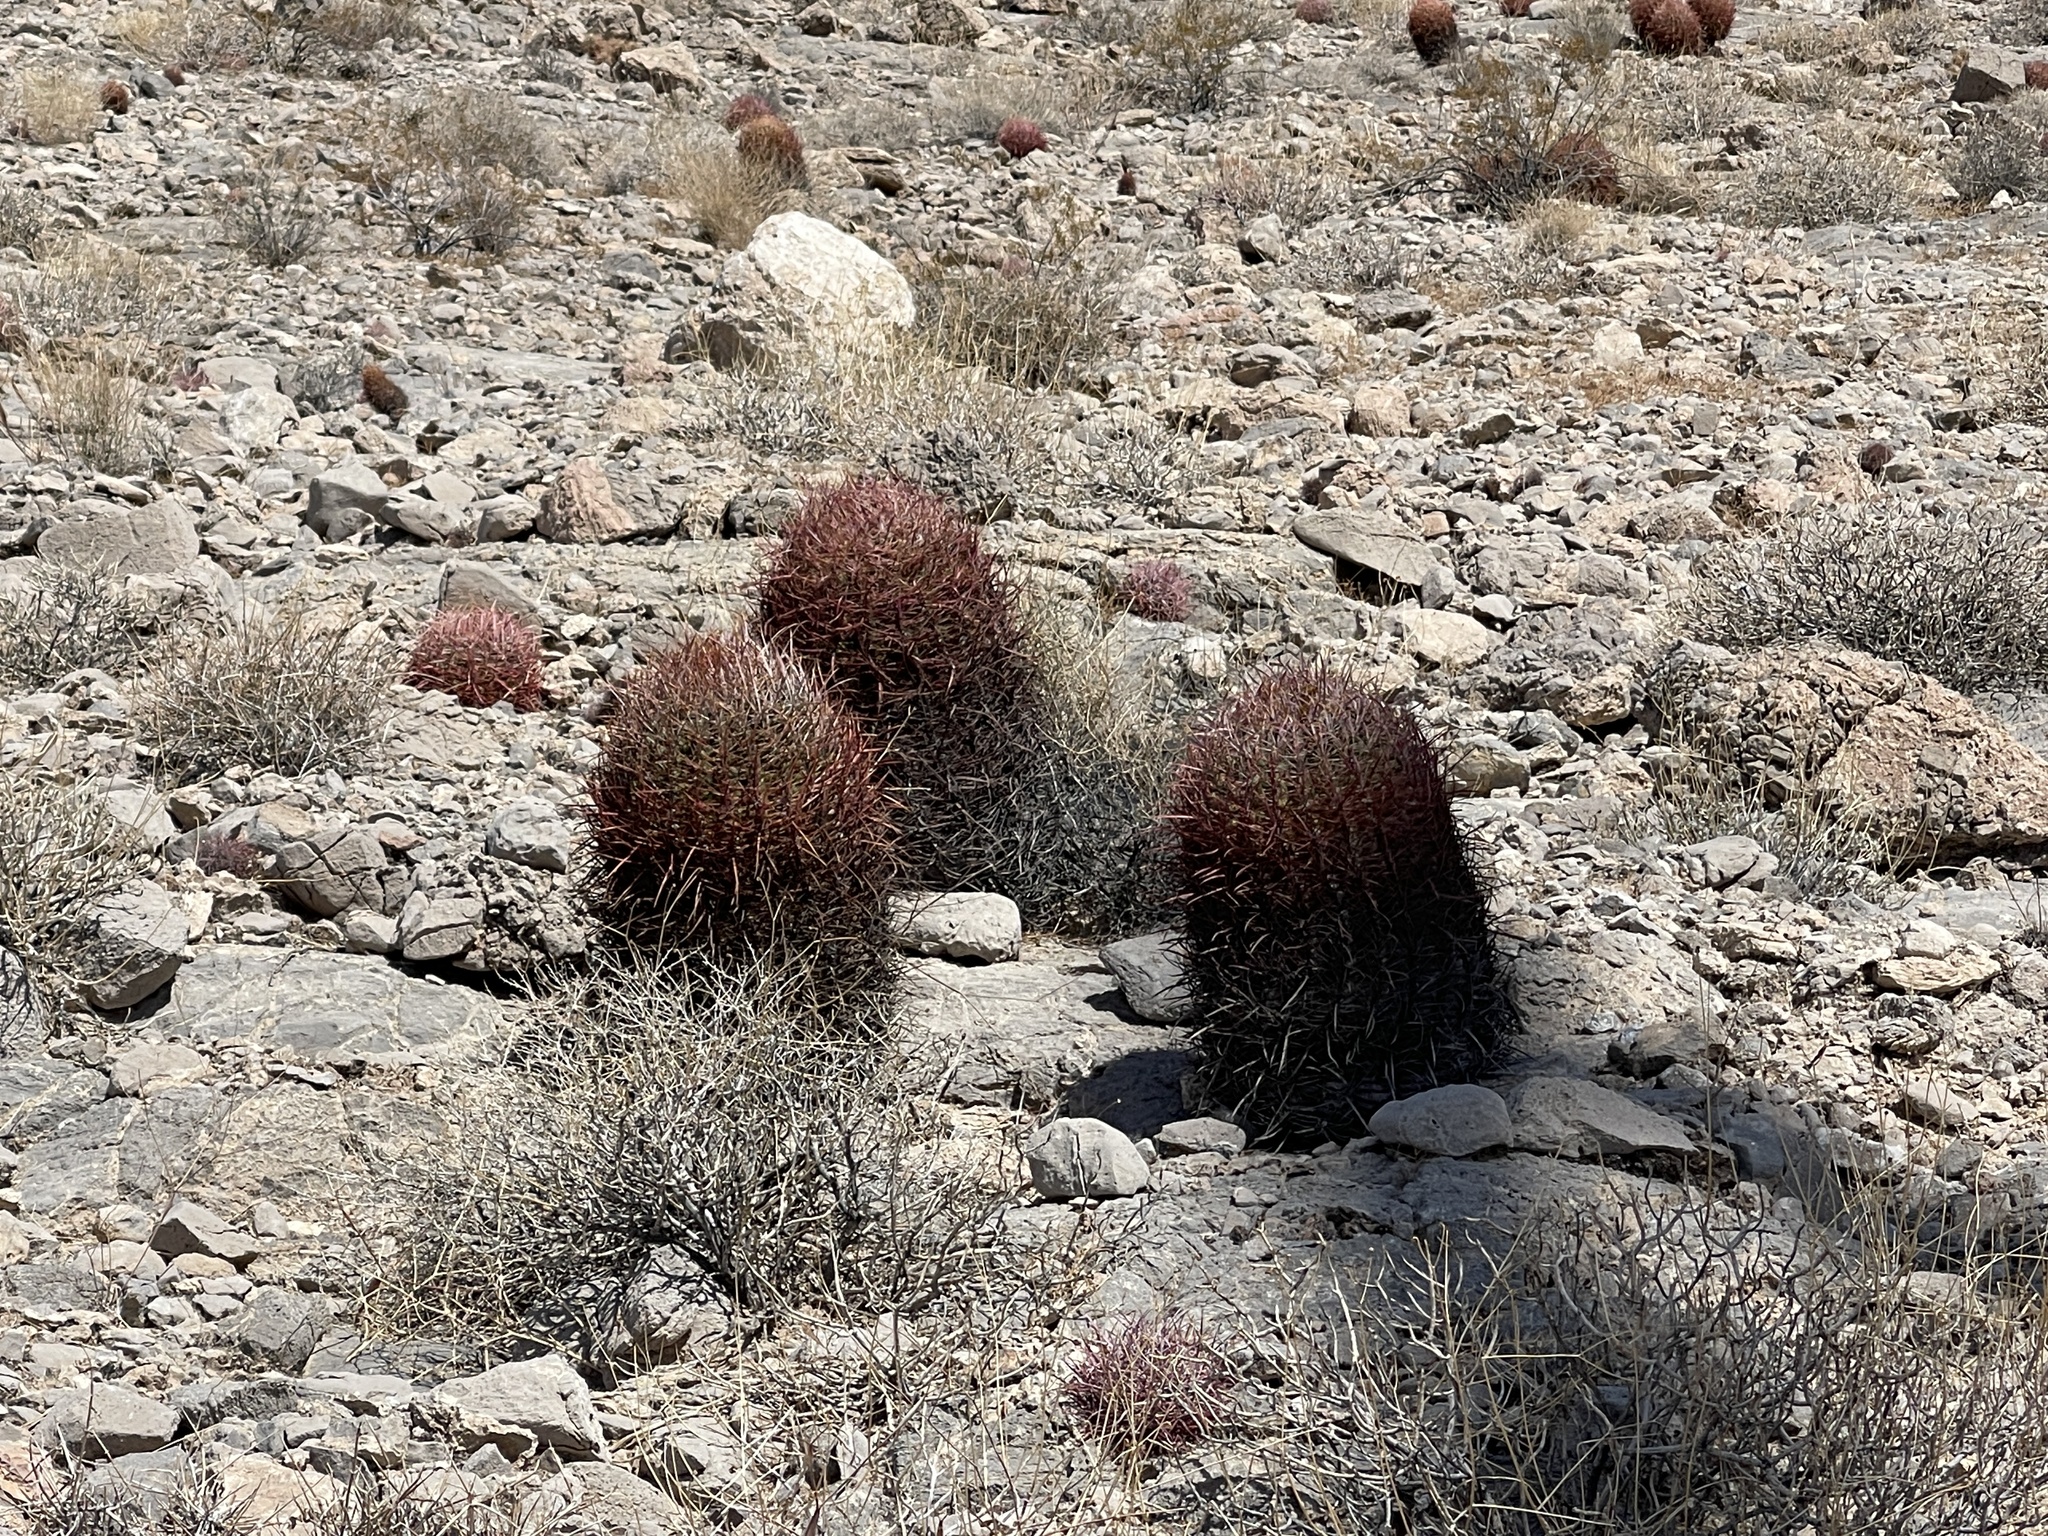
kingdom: Plantae
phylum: Tracheophyta
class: Magnoliopsida
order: Caryophyllales
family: Cactaceae
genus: Ferocactus
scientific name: Ferocactus cylindraceus
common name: California barrel cactus
